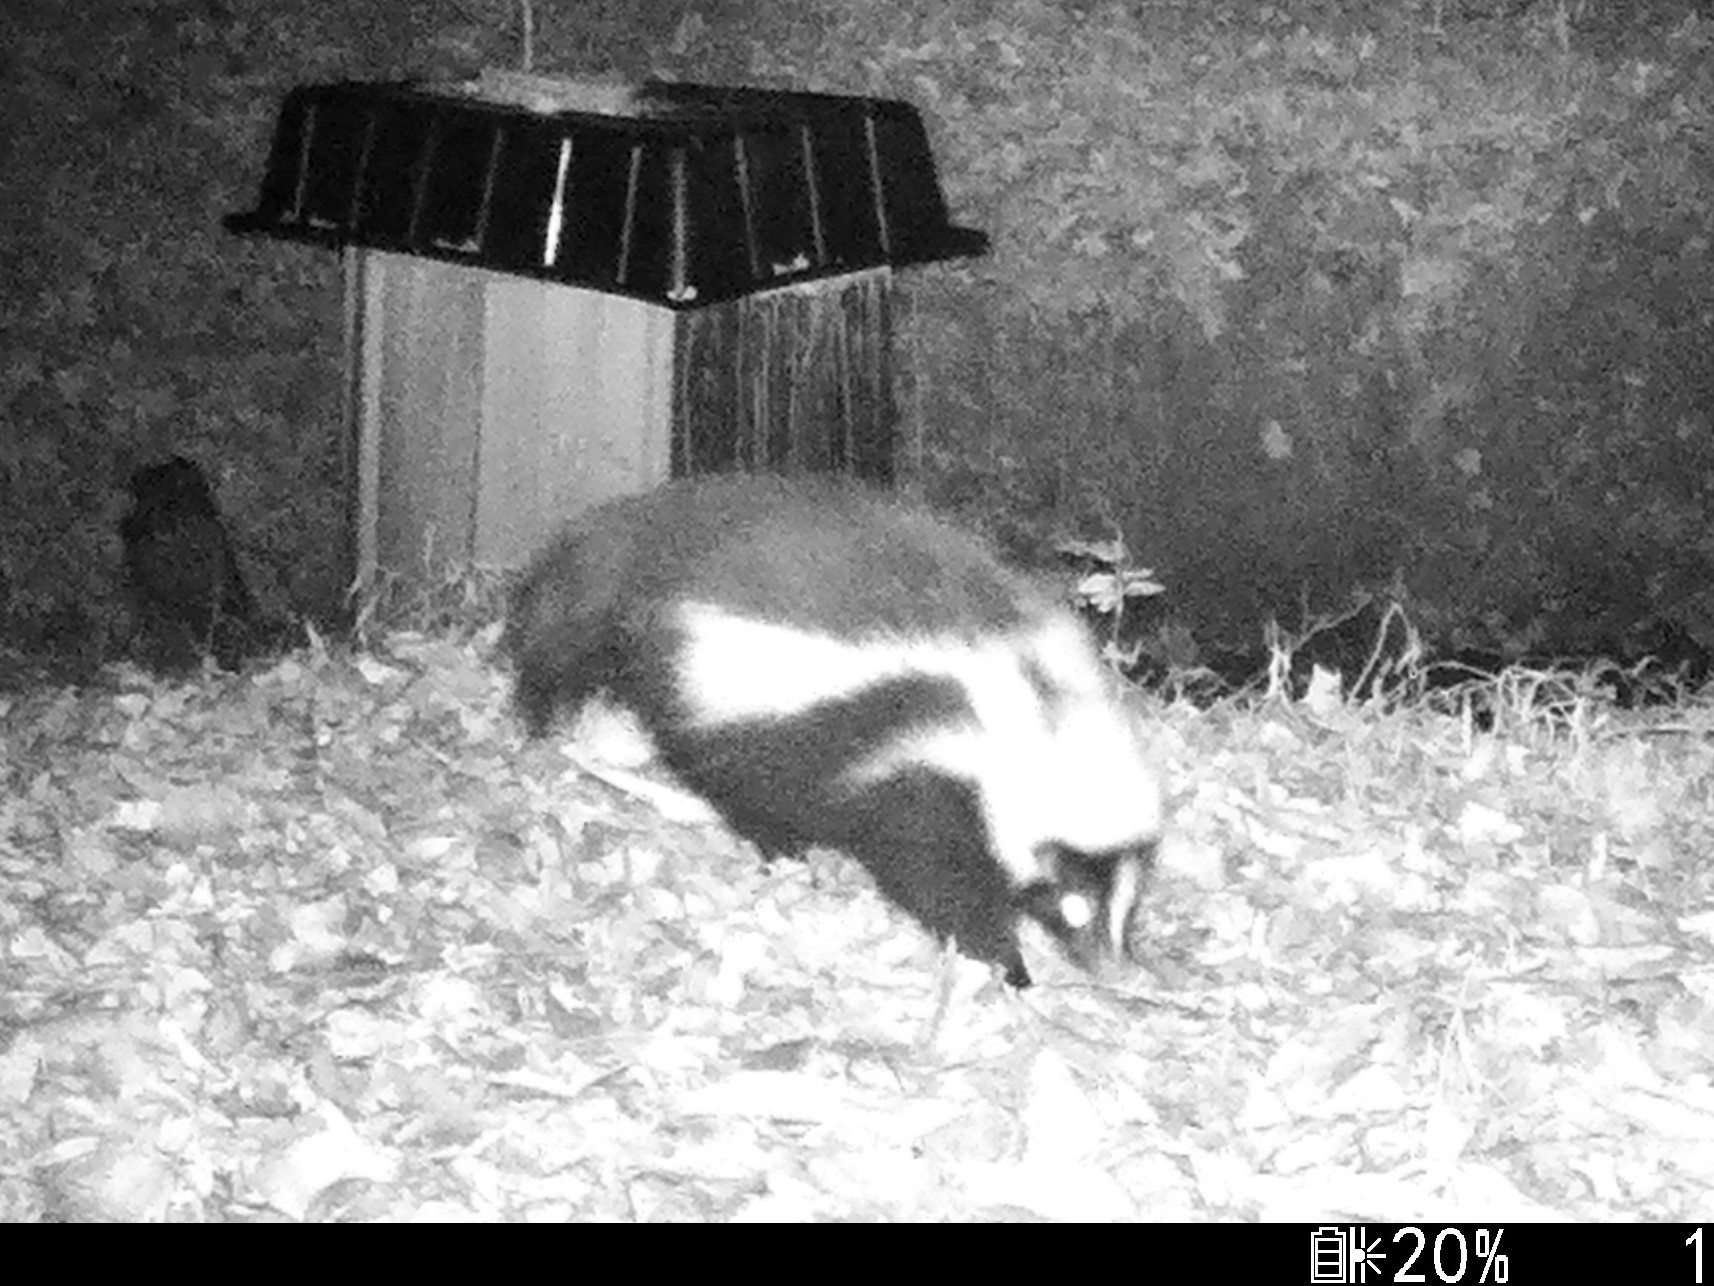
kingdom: Animalia
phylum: Chordata
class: Mammalia
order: Carnivora
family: Mephitidae
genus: Mephitis
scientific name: Mephitis mephitis
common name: Striped skunk
